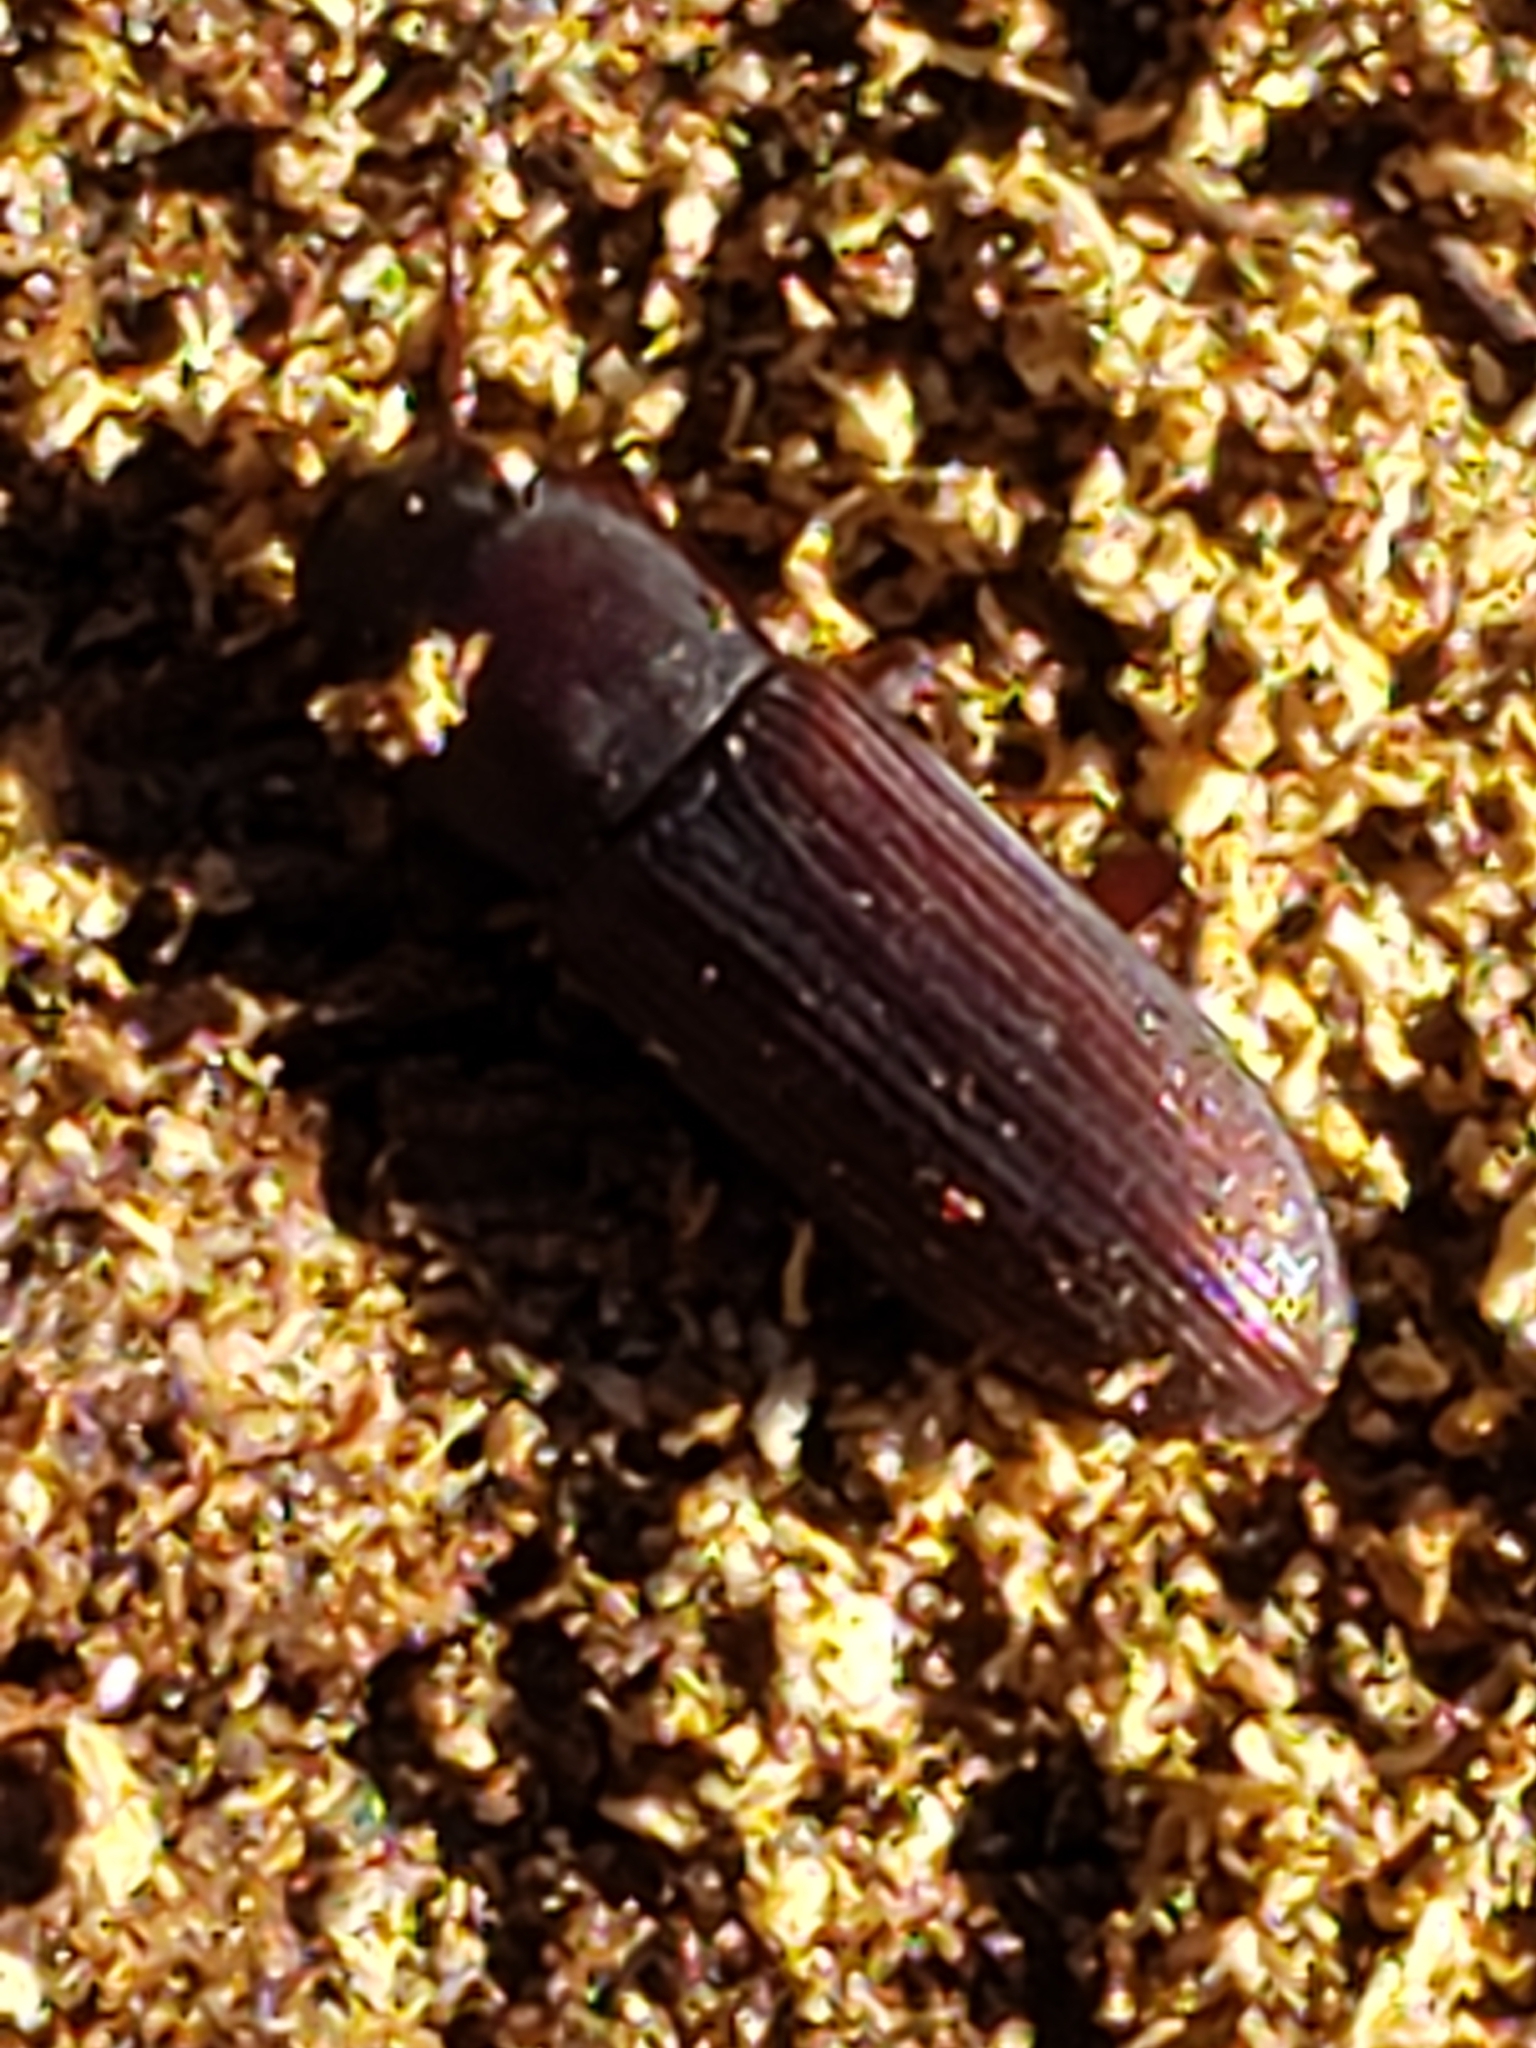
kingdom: Animalia
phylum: Arthropoda
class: Insecta
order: Coleoptera
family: Tenebrionidae
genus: Idiobates
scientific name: Idiobates castaneus
